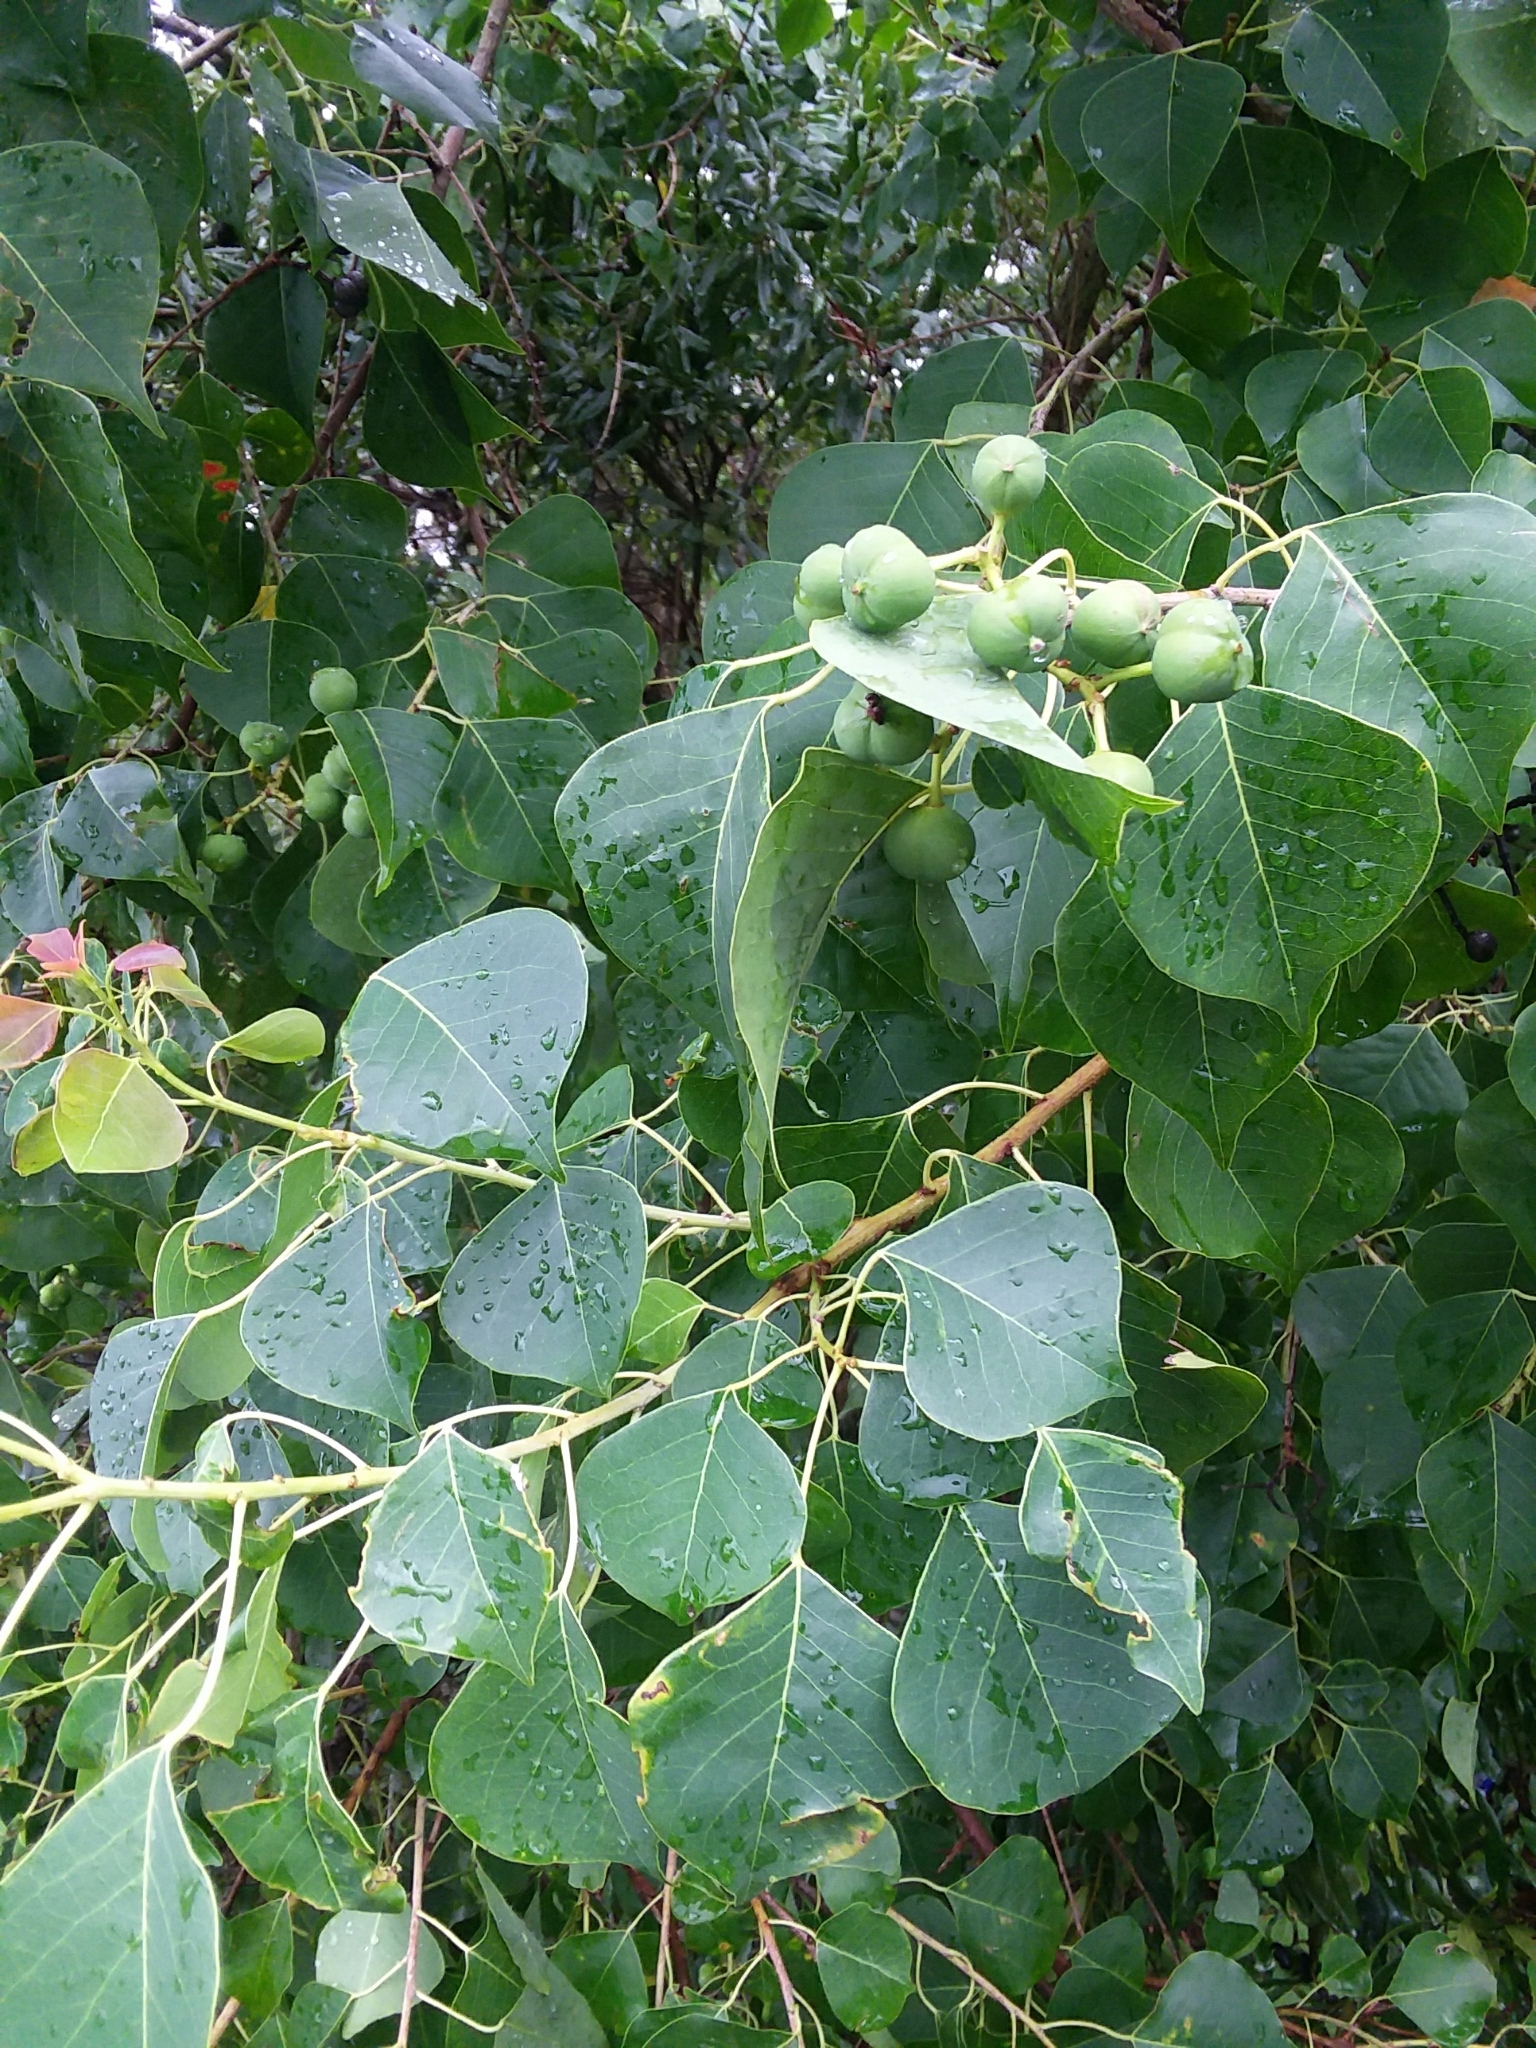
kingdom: Plantae
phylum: Tracheophyta
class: Magnoliopsida
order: Malpighiales
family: Euphorbiaceae
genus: Triadica
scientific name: Triadica sebifera
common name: Chinese tallow
